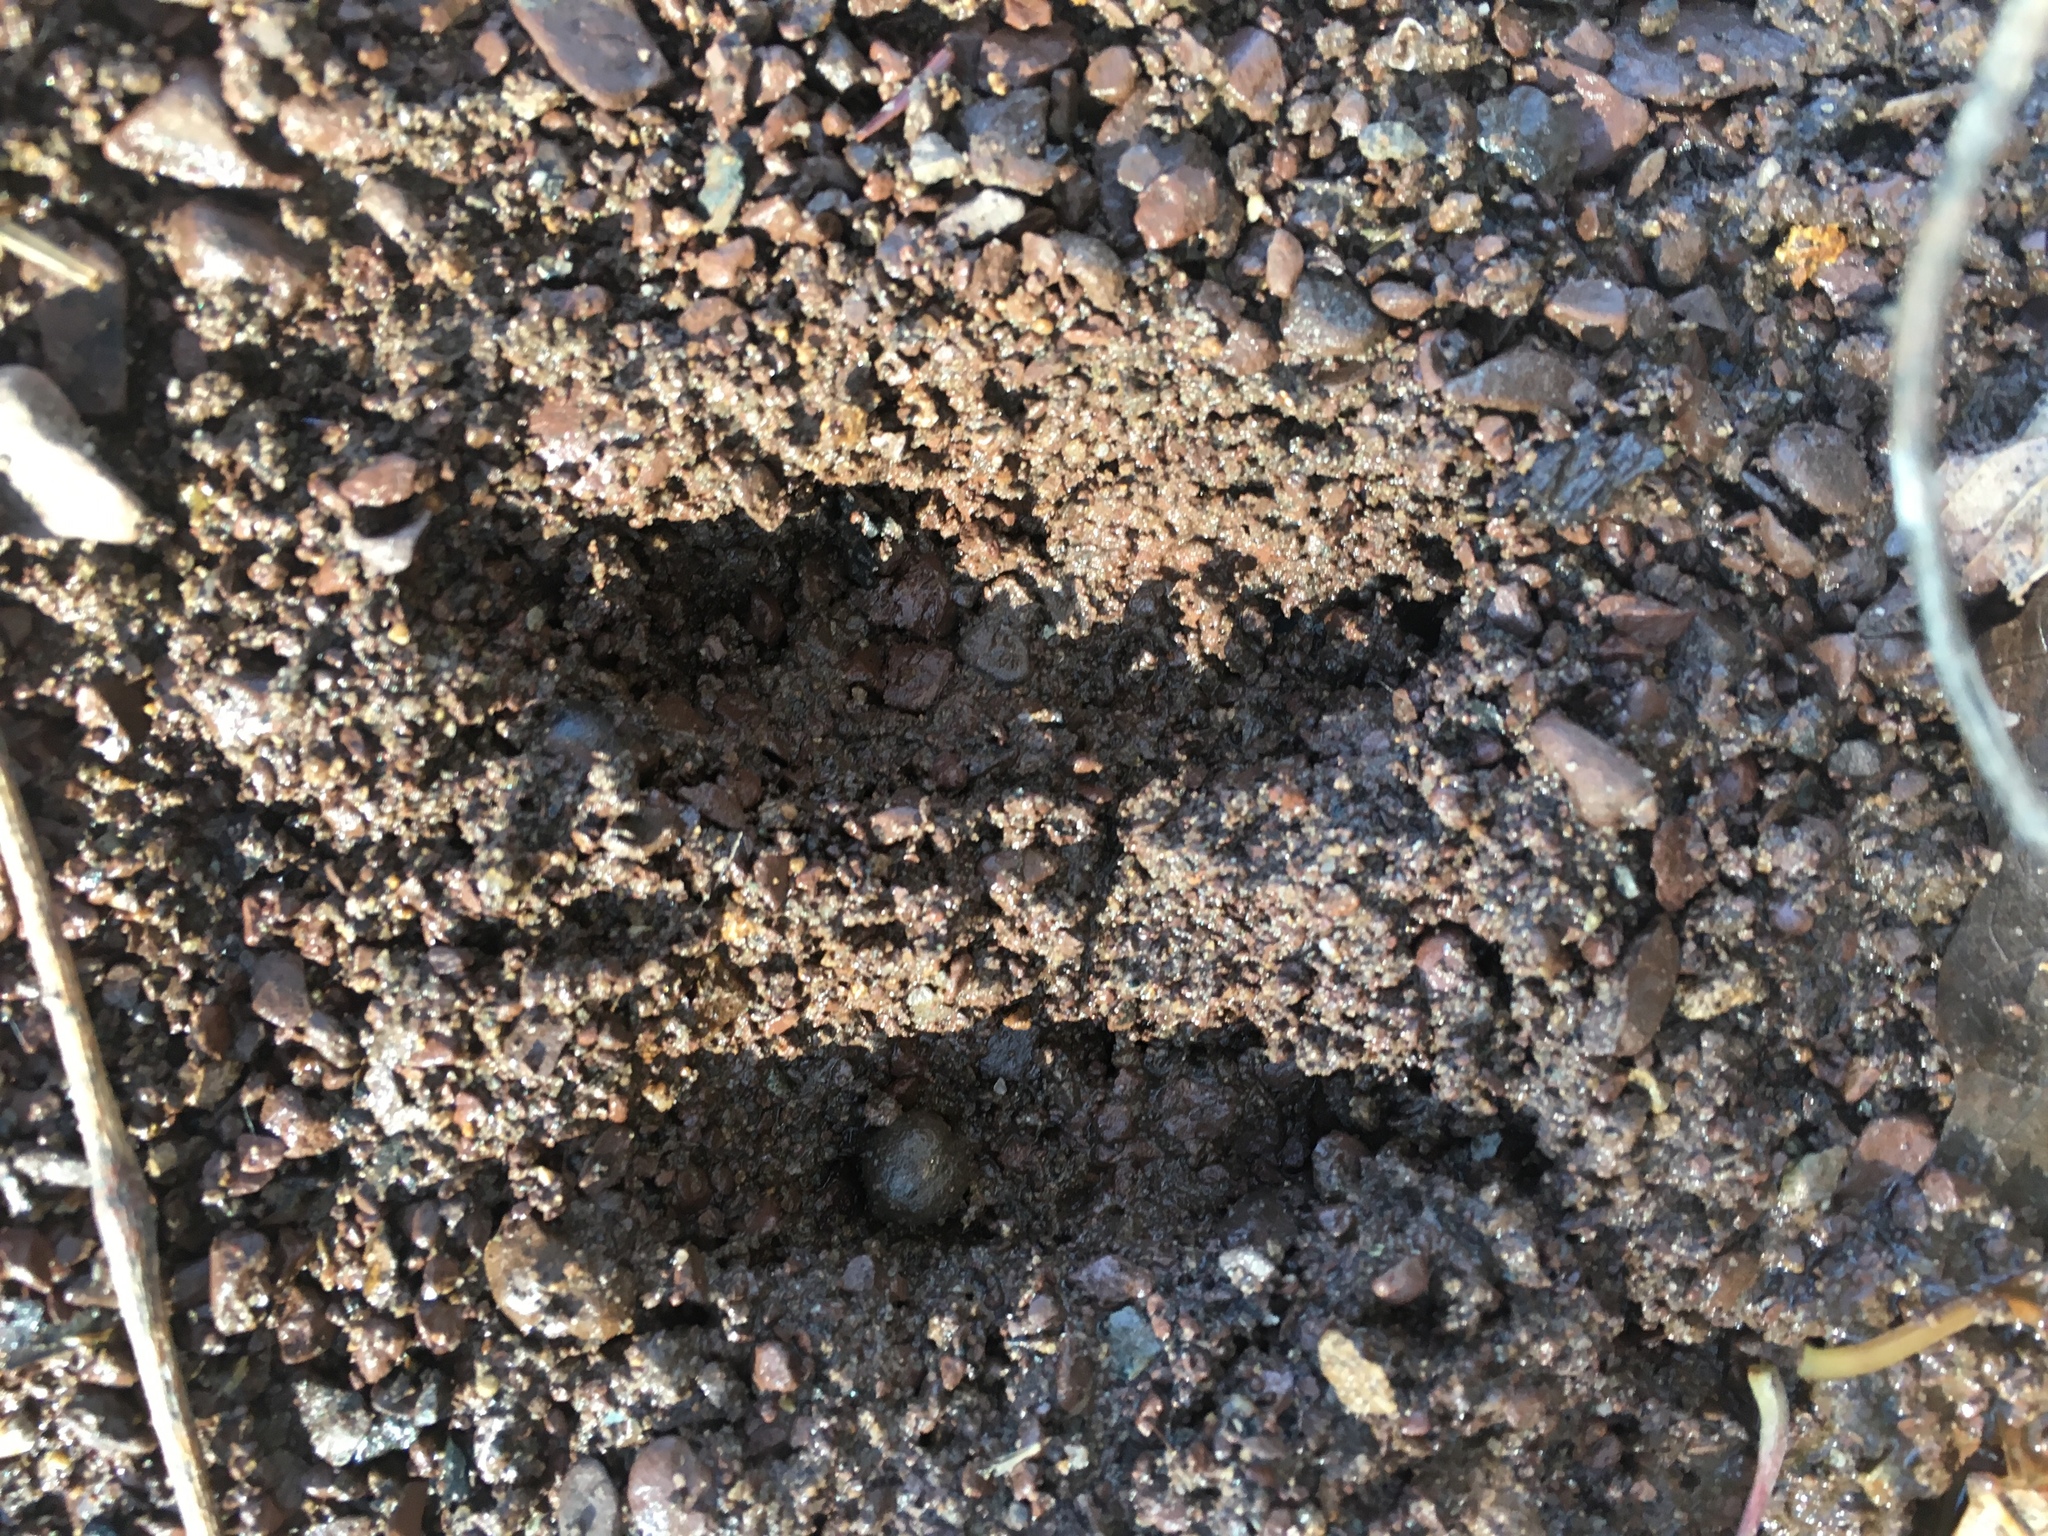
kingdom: Animalia
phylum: Chordata
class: Mammalia
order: Artiodactyla
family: Cervidae
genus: Odocoileus
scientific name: Odocoileus virginianus
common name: White-tailed deer
